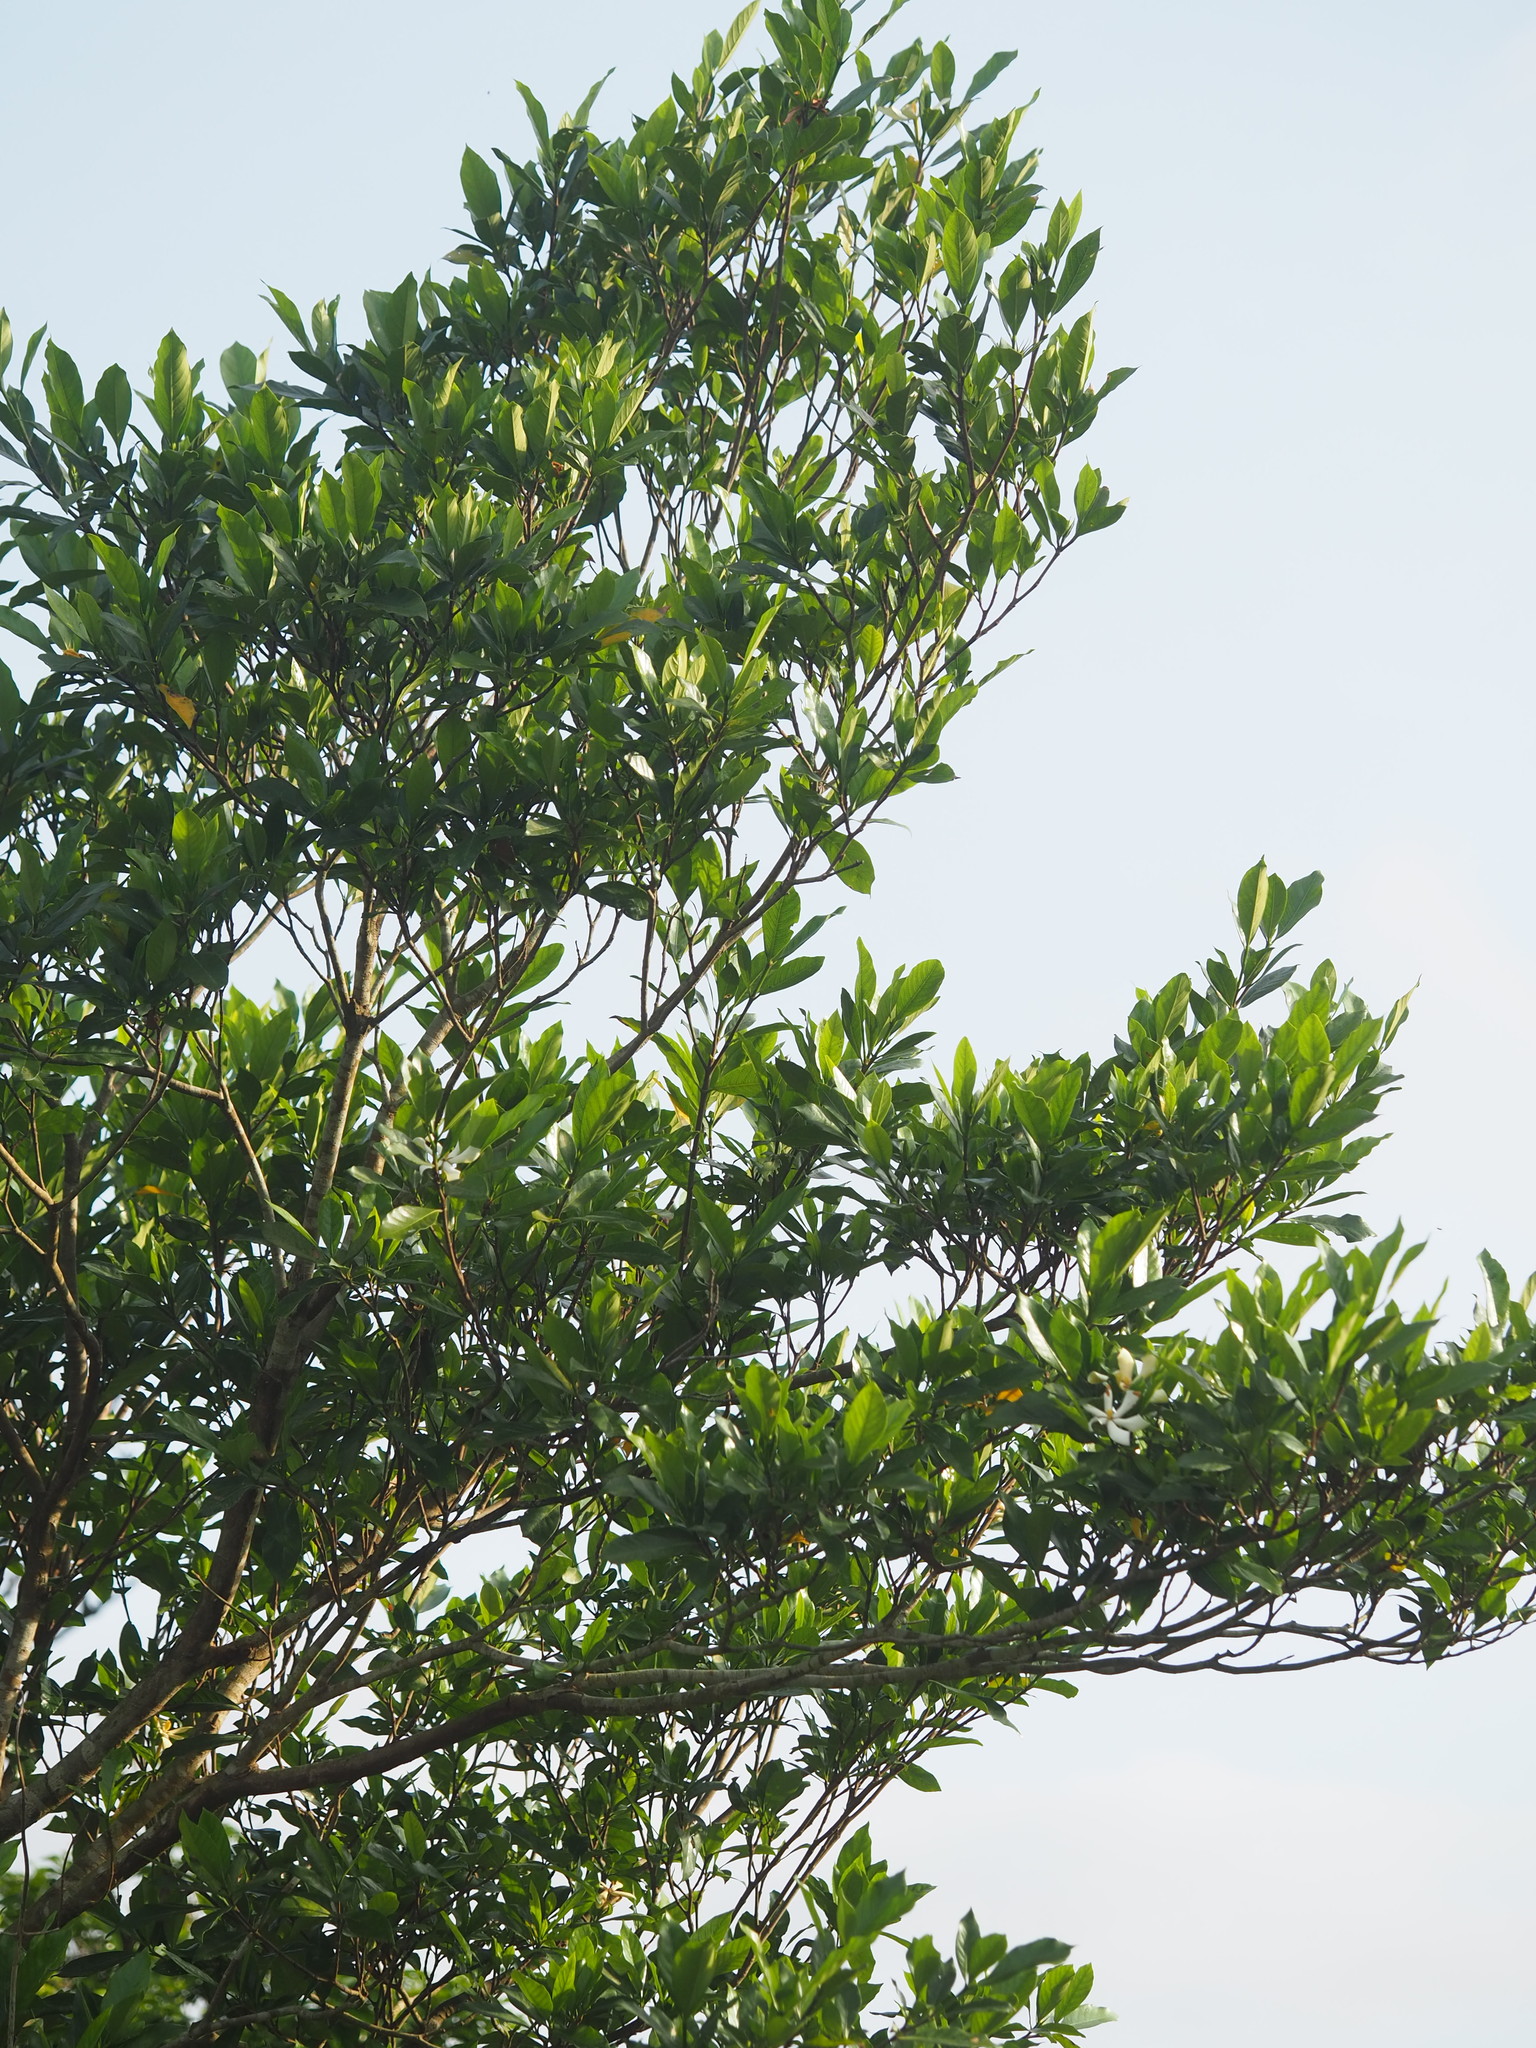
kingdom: Plantae
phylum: Tracheophyta
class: Magnoliopsida
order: Gentianales
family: Rubiaceae
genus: Gardenia
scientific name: Gardenia jasminoides
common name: Cape-jasmine
